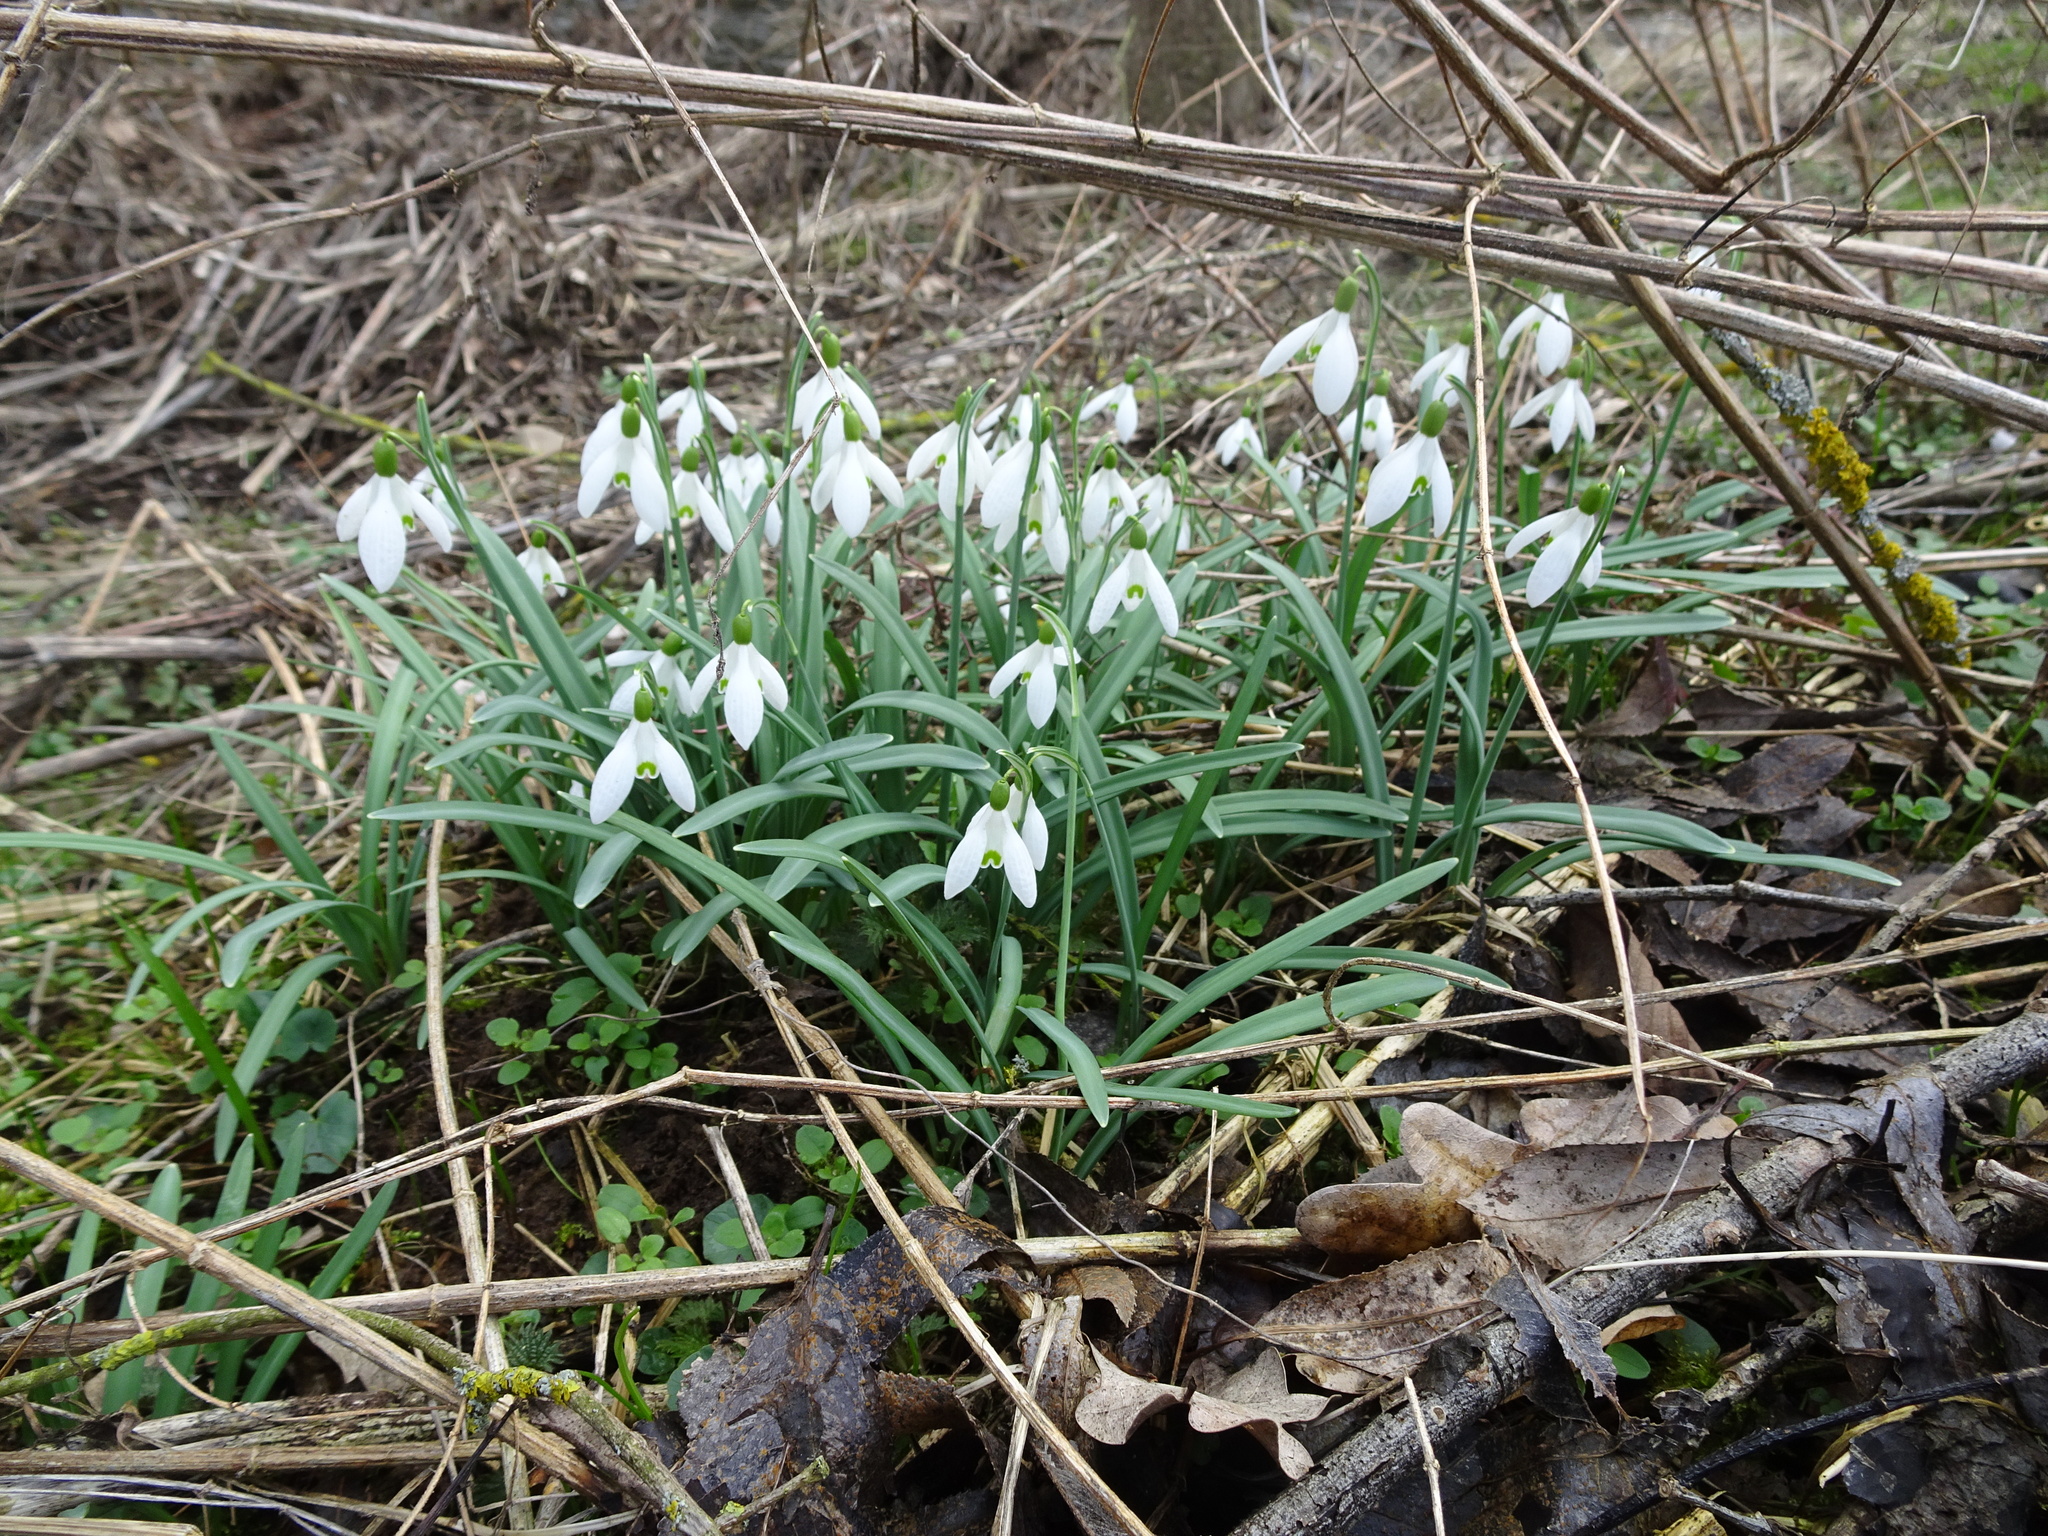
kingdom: Plantae
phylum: Tracheophyta
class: Liliopsida
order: Asparagales
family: Amaryllidaceae
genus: Galanthus
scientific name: Galanthus nivalis
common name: Snowdrop
